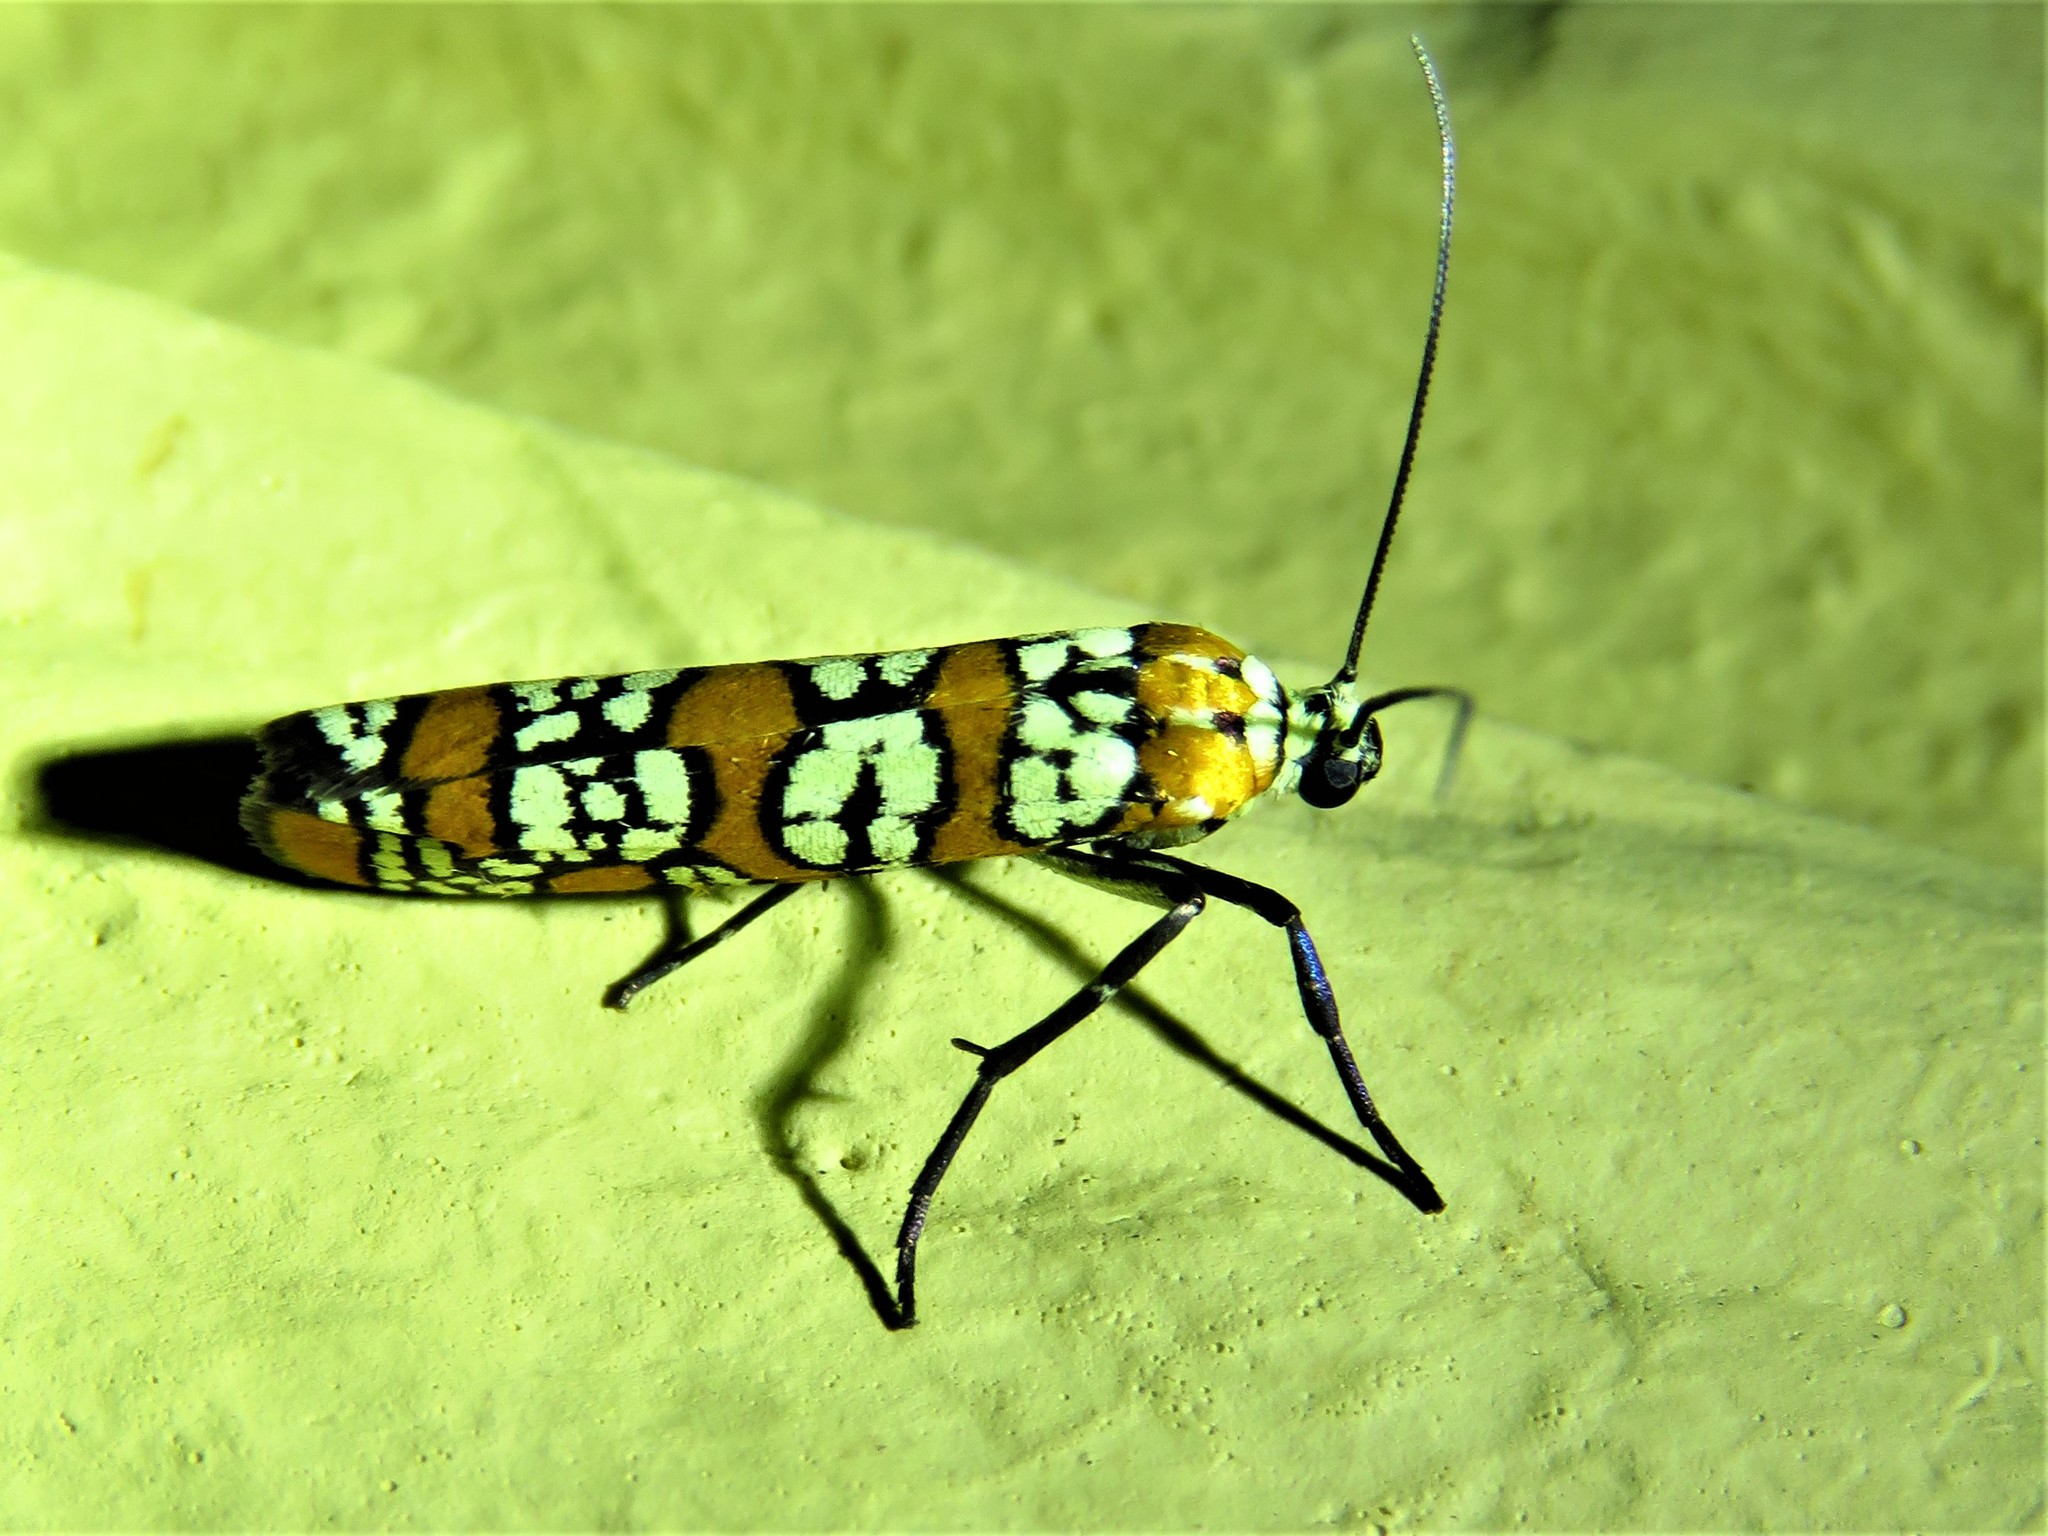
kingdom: Animalia
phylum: Arthropoda
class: Insecta
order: Lepidoptera
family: Attevidae
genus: Atteva
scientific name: Atteva punctella
